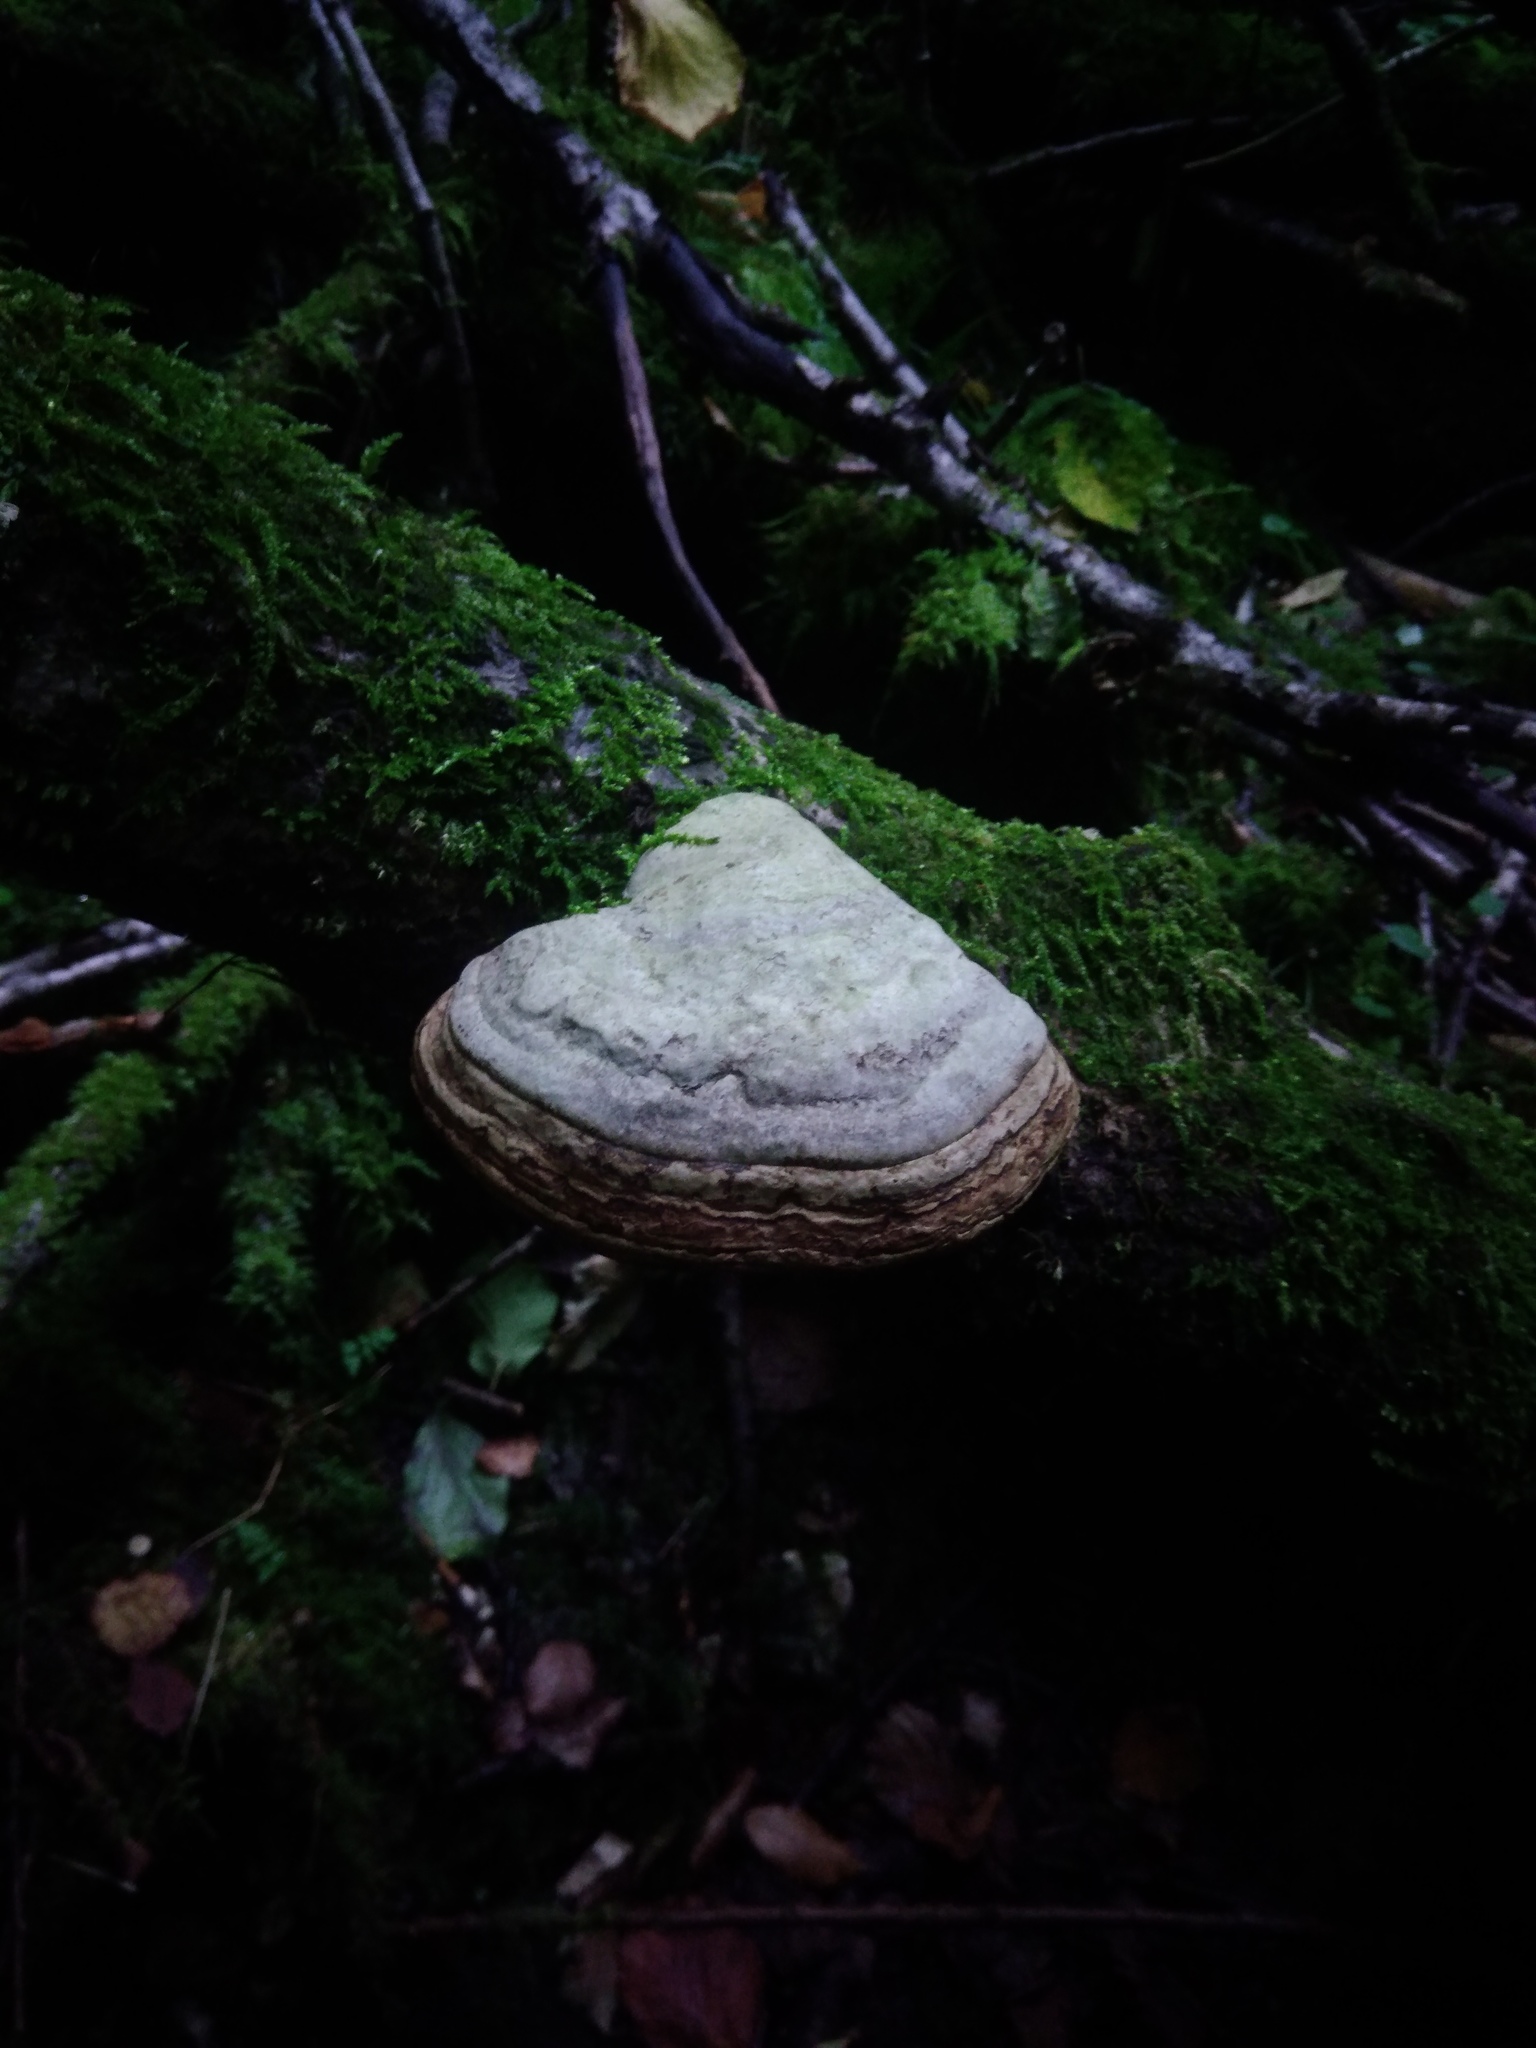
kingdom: Fungi
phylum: Basidiomycota
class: Agaricomycetes
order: Polyporales
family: Polyporaceae
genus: Fomes
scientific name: Fomes fomentarius
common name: Hoof fungus
